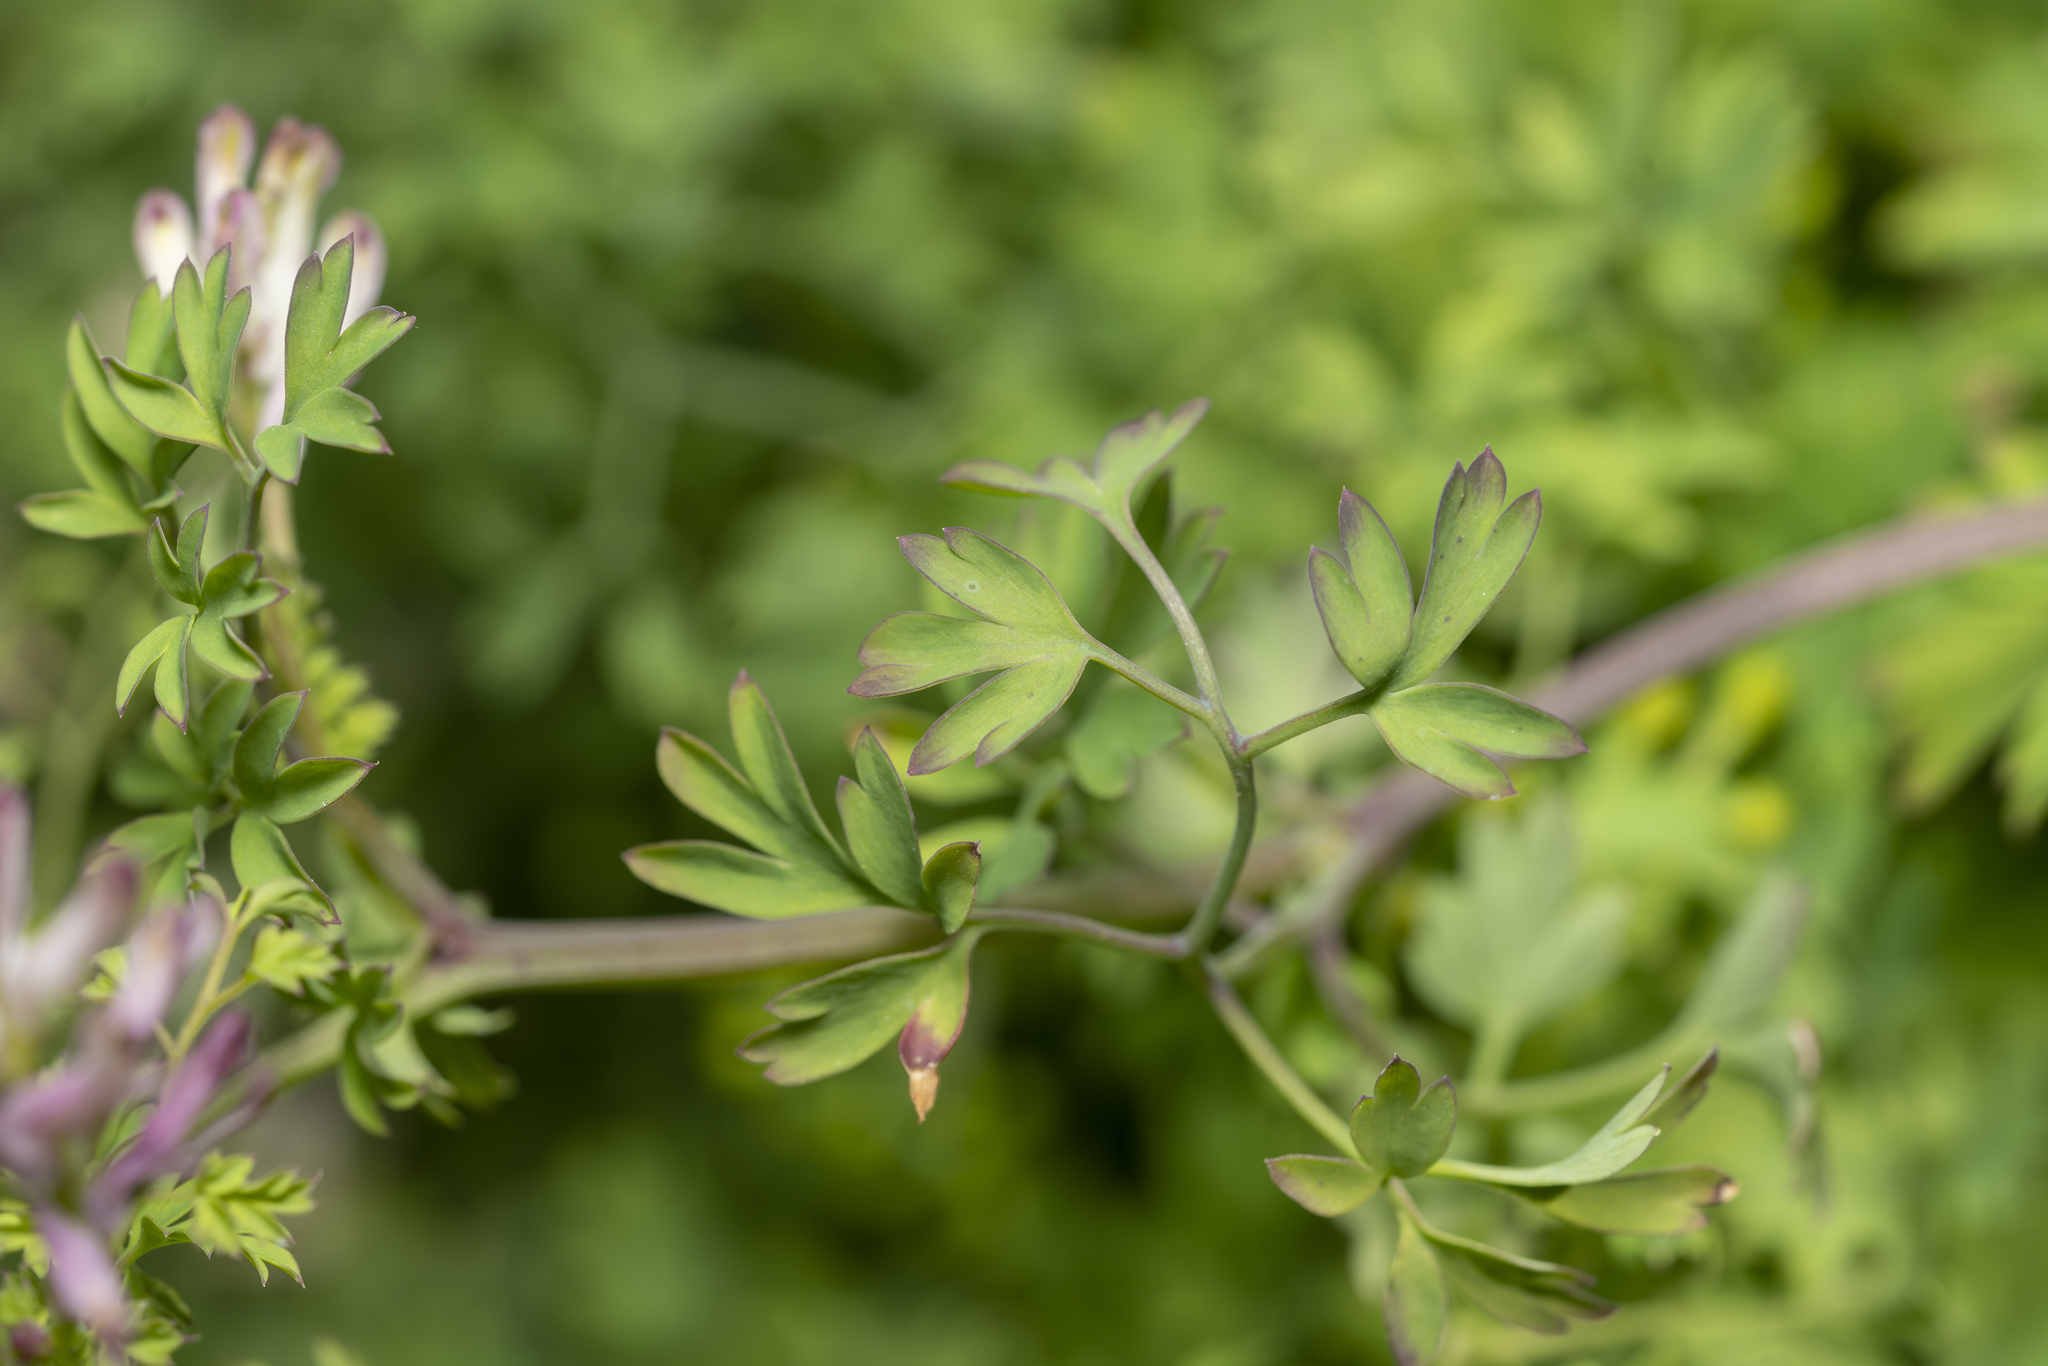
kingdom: Plantae
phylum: Tracheophyta
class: Magnoliopsida
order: Ranunculales
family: Papaveraceae
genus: Fumaria
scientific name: Fumaria judaica
